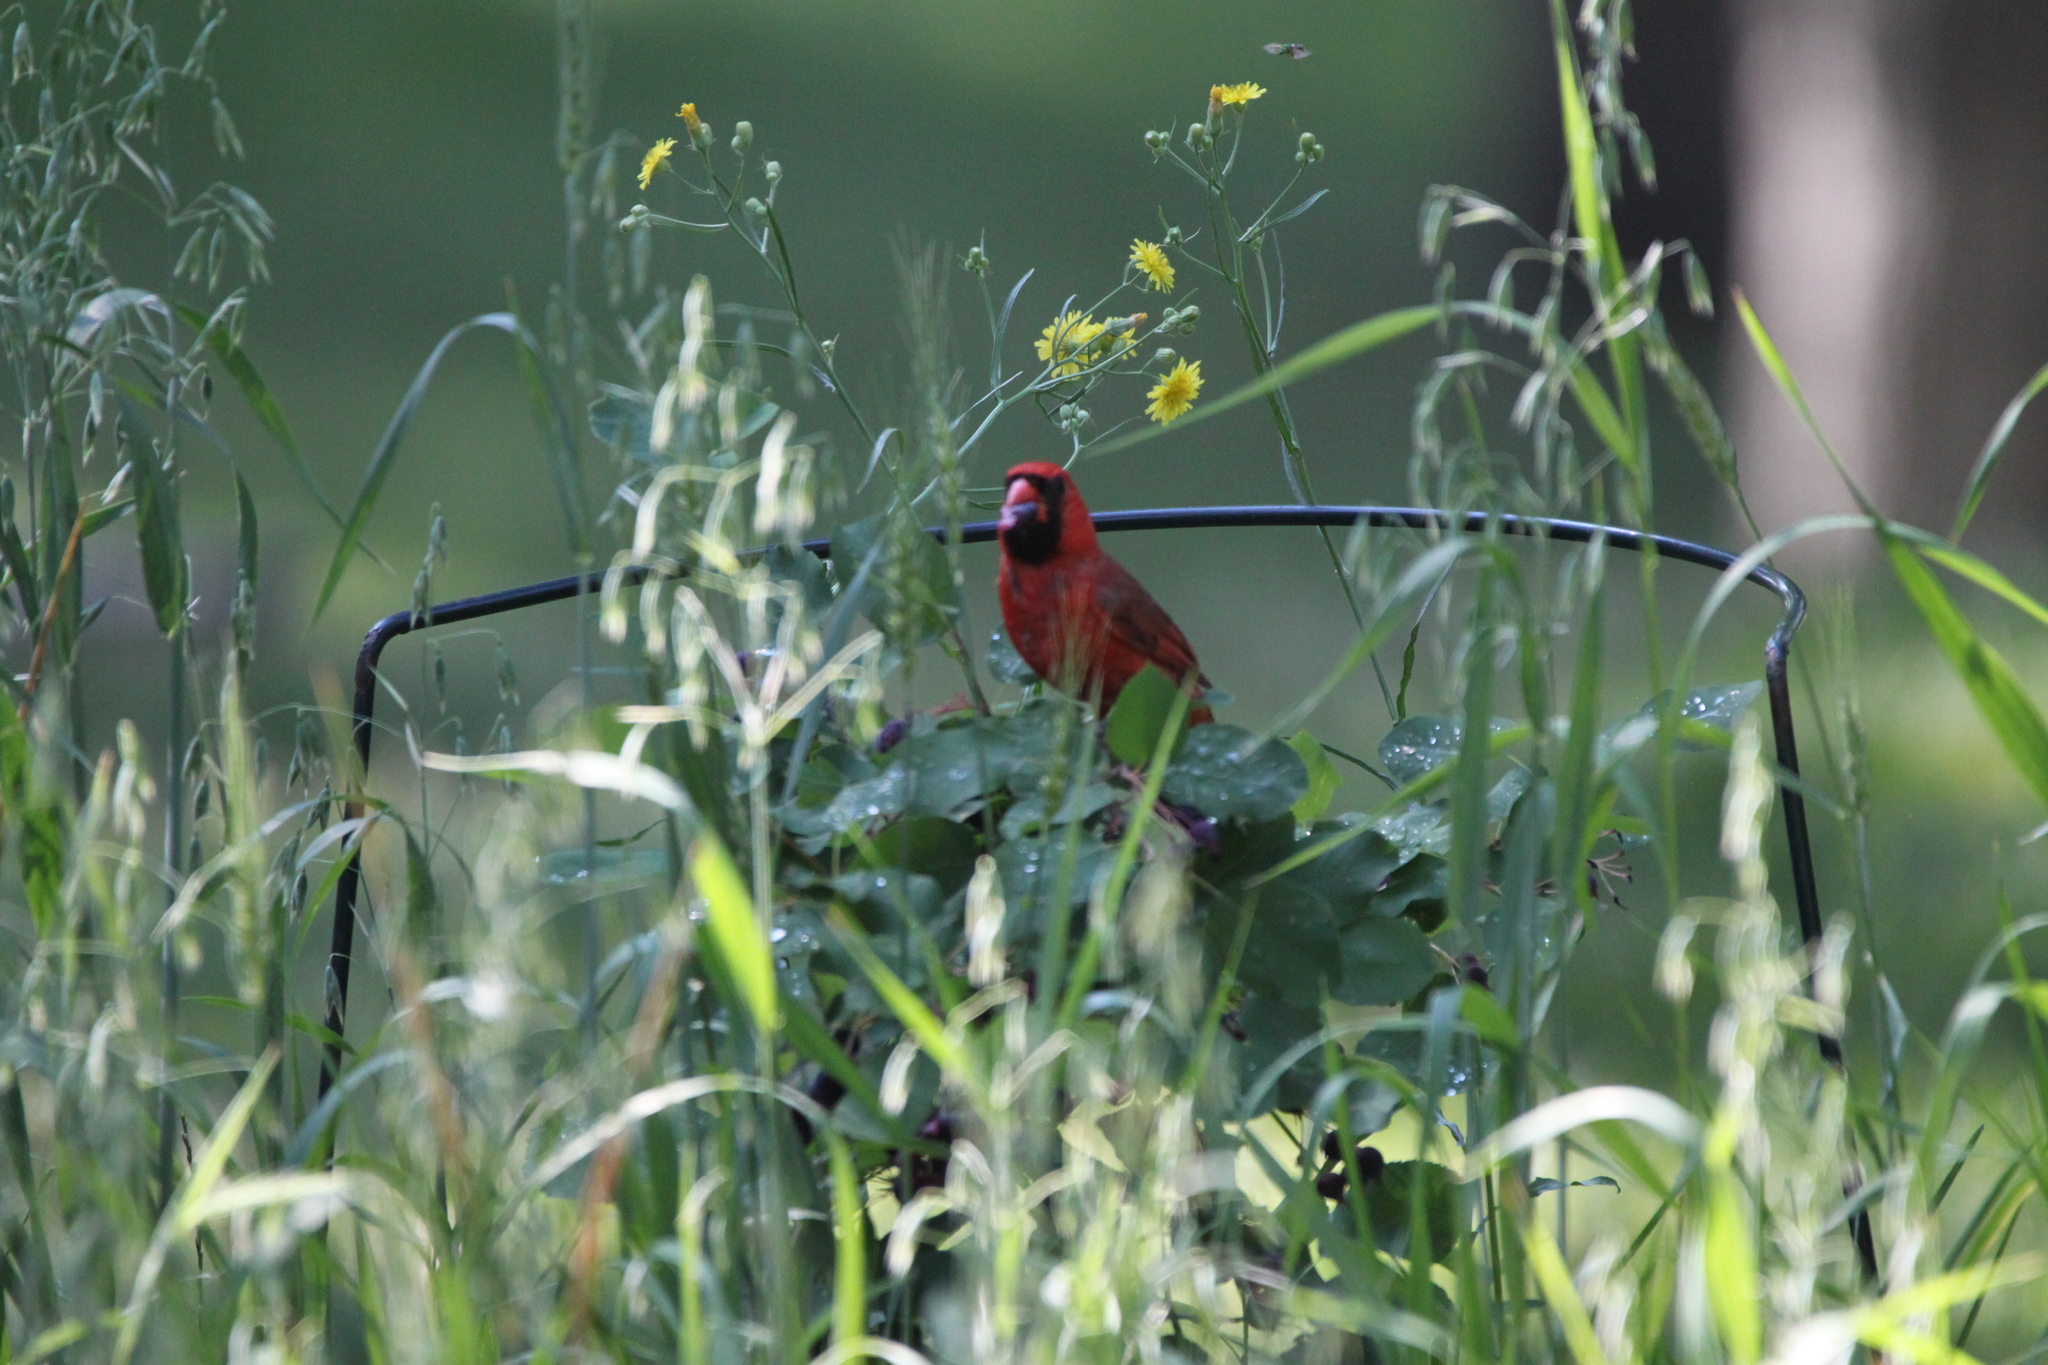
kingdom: Animalia
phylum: Chordata
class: Aves
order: Passeriformes
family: Cardinalidae
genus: Cardinalis
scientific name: Cardinalis cardinalis
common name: Northern cardinal
